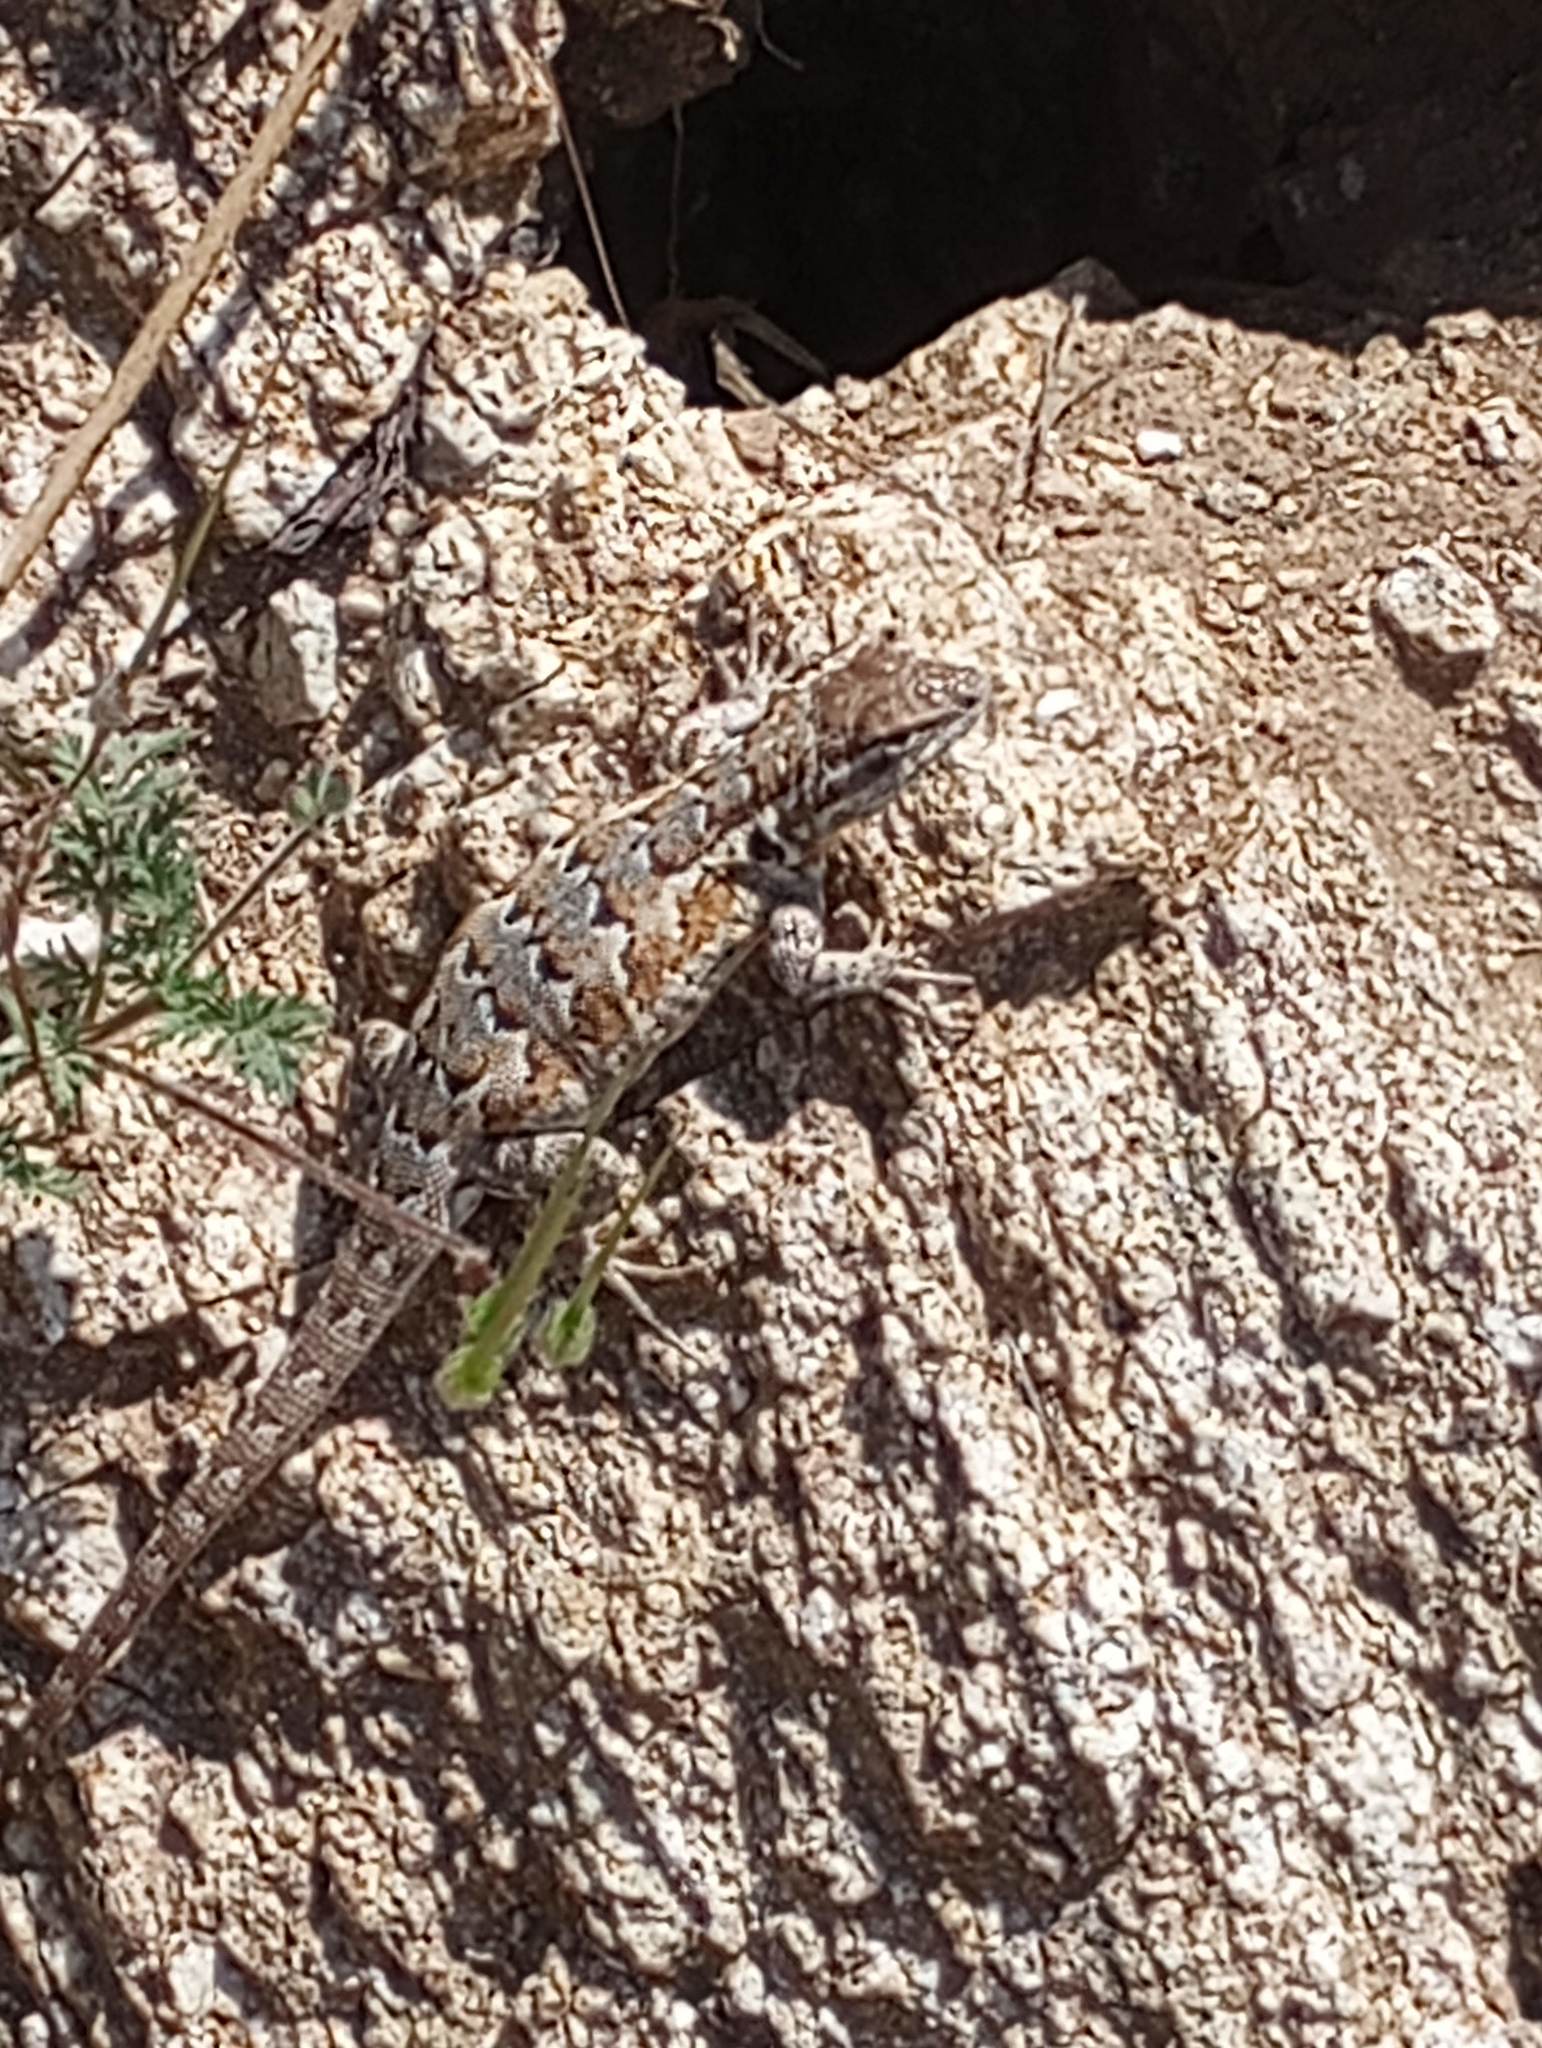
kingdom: Animalia
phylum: Chordata
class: Squamata
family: Phrynosomatidae
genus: Uta
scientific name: Uta stansburiana
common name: Side-blotched lizard
